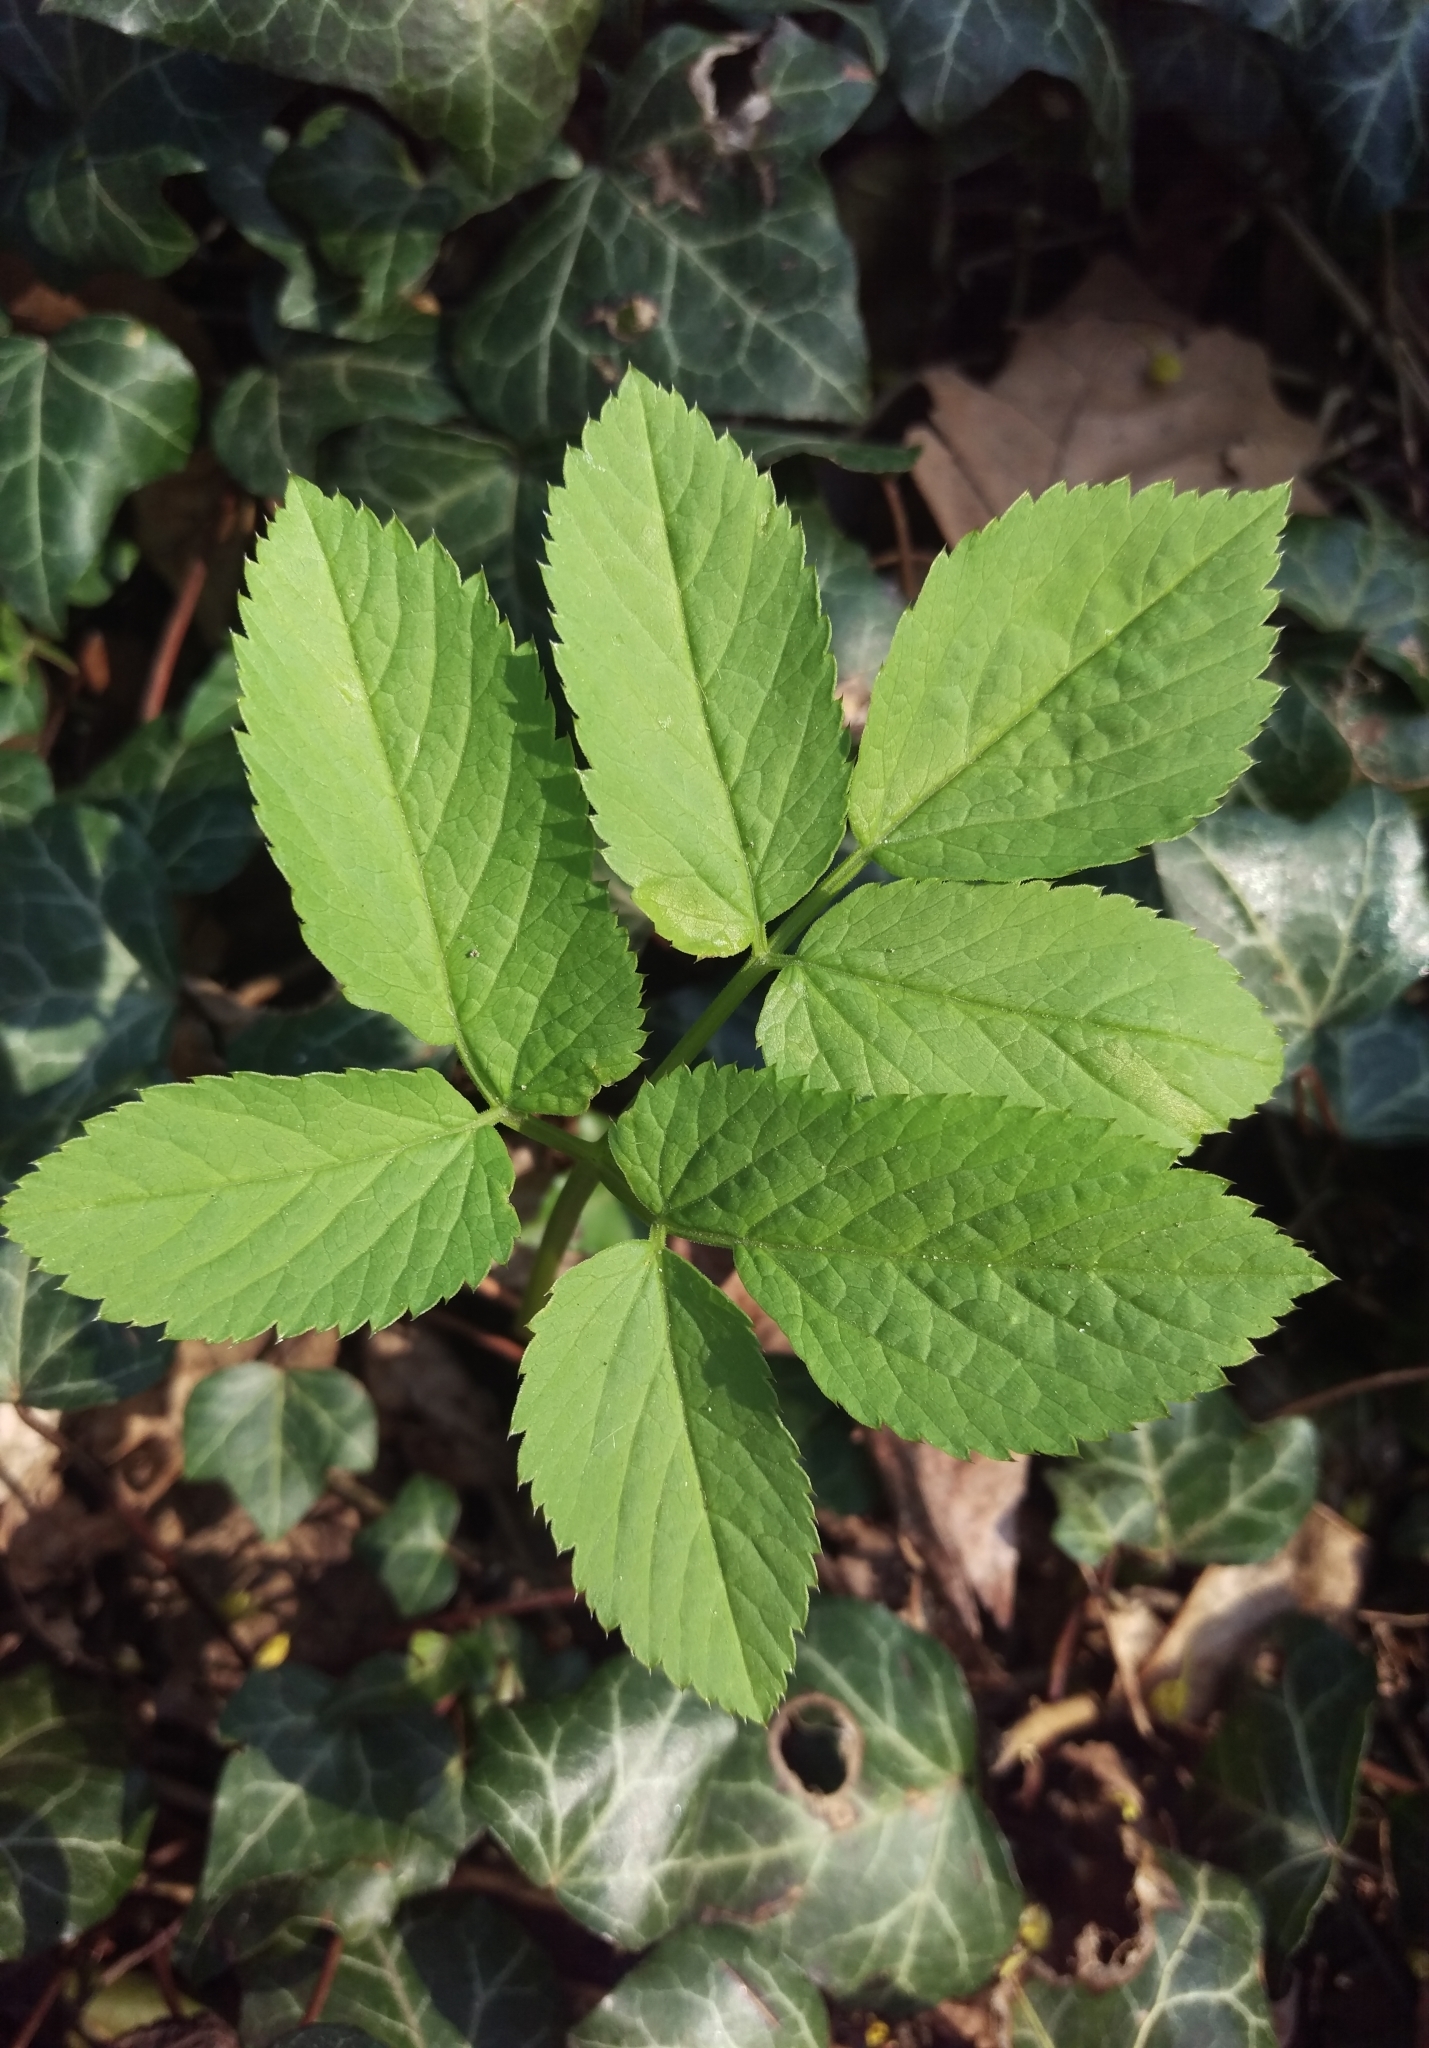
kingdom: Plantae
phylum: Tracheophyta
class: Magnoliopsida
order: Apiales
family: Apiaceae
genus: Aegopodium
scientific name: Aegopodium podagraria
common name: Ground-elder
